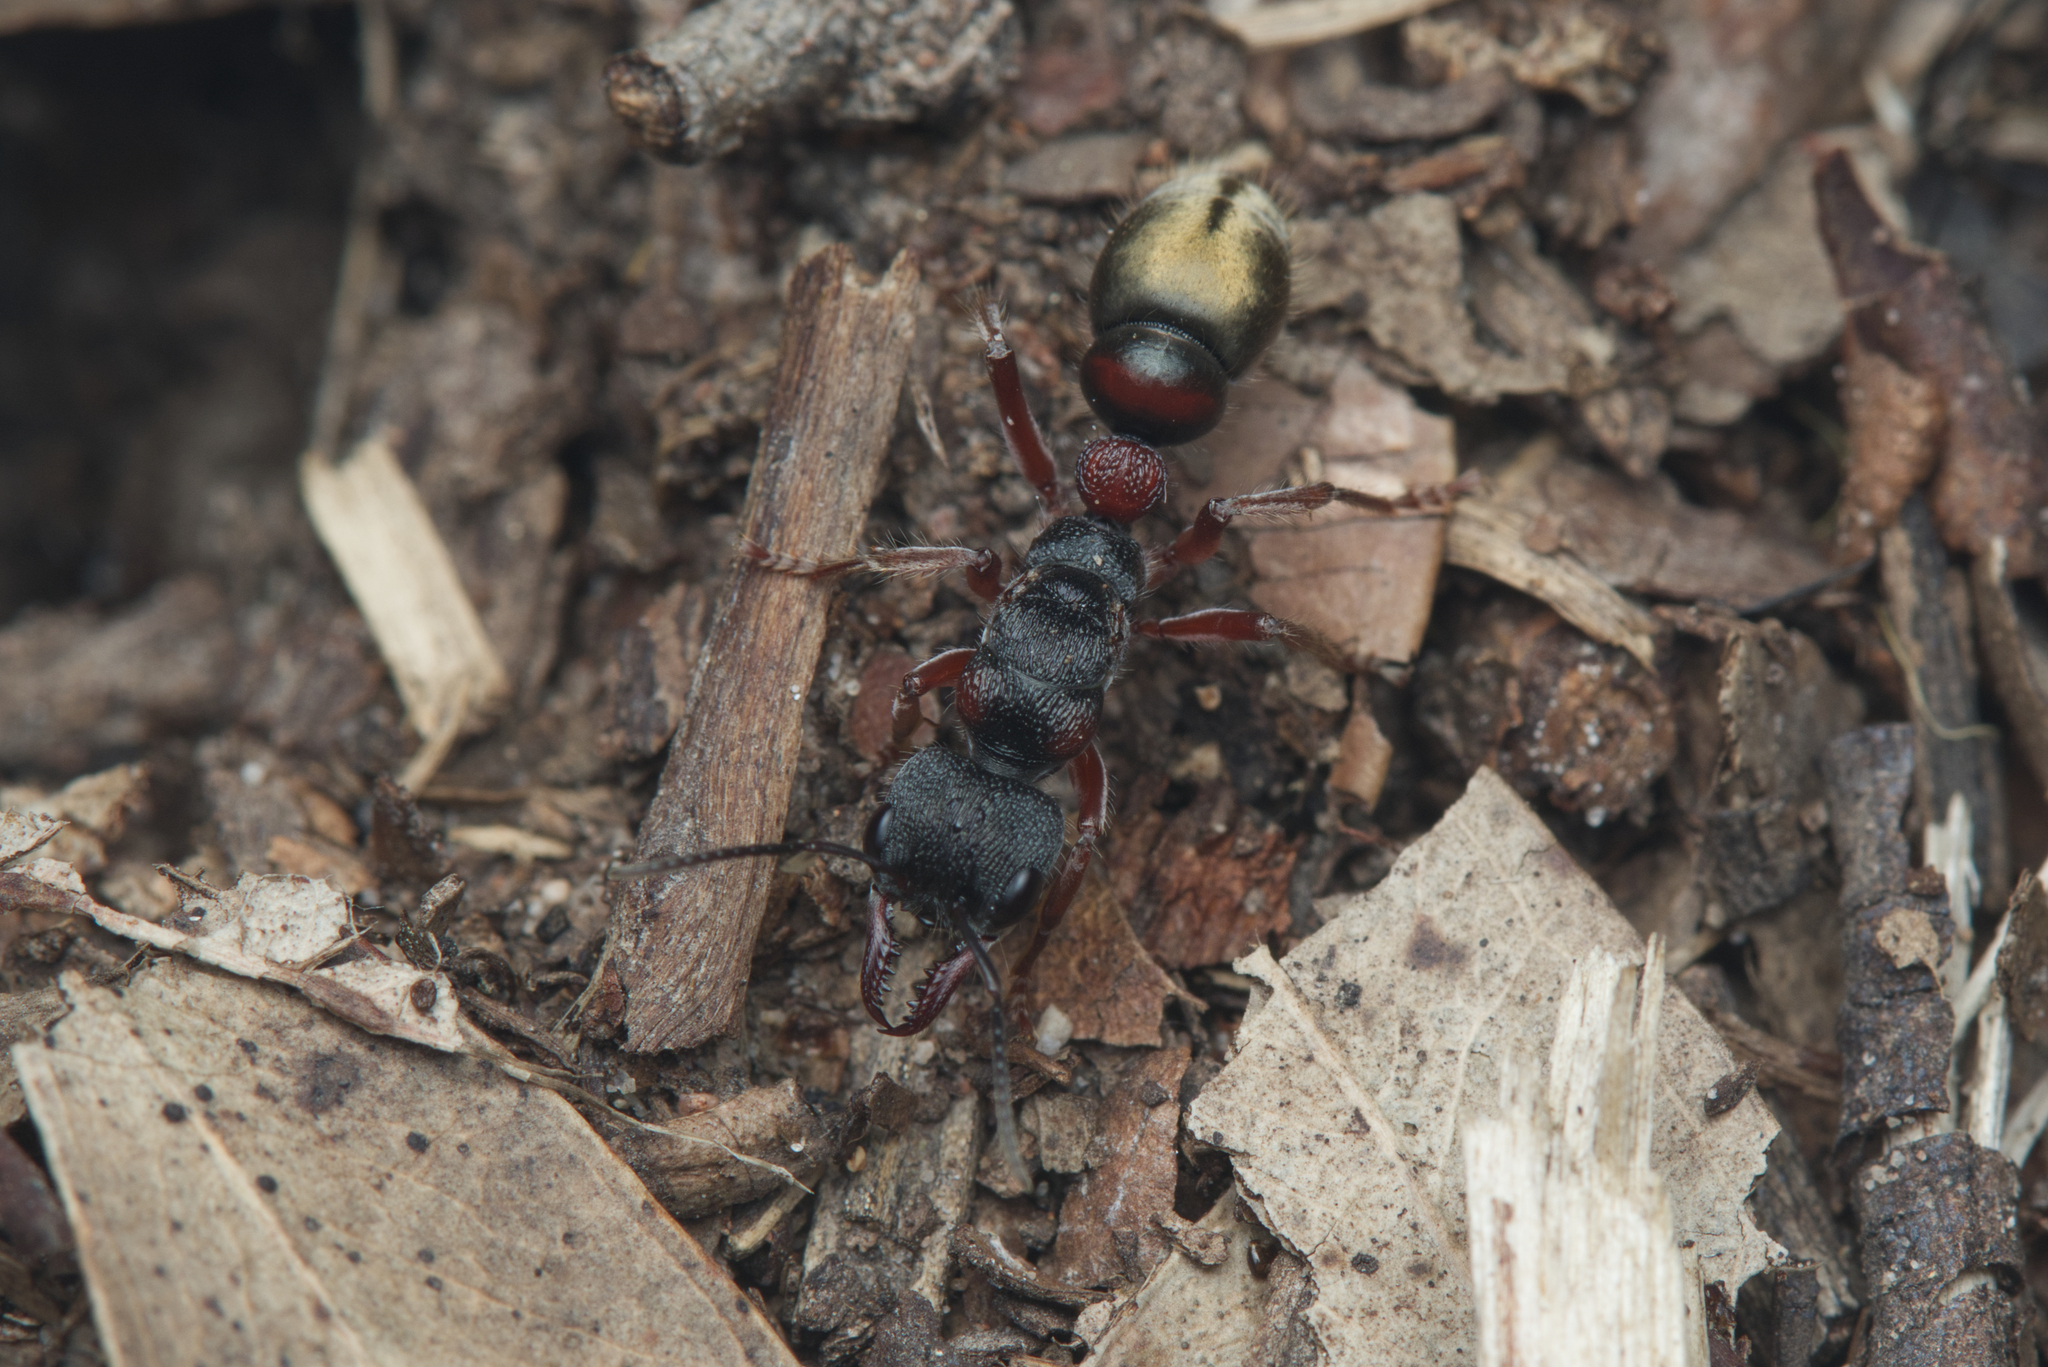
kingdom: Animalia
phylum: Arthropoda
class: Insecta
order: Hymenoptera
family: Formicidae
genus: Myrmecia
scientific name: Myrmecia chrysogaster
